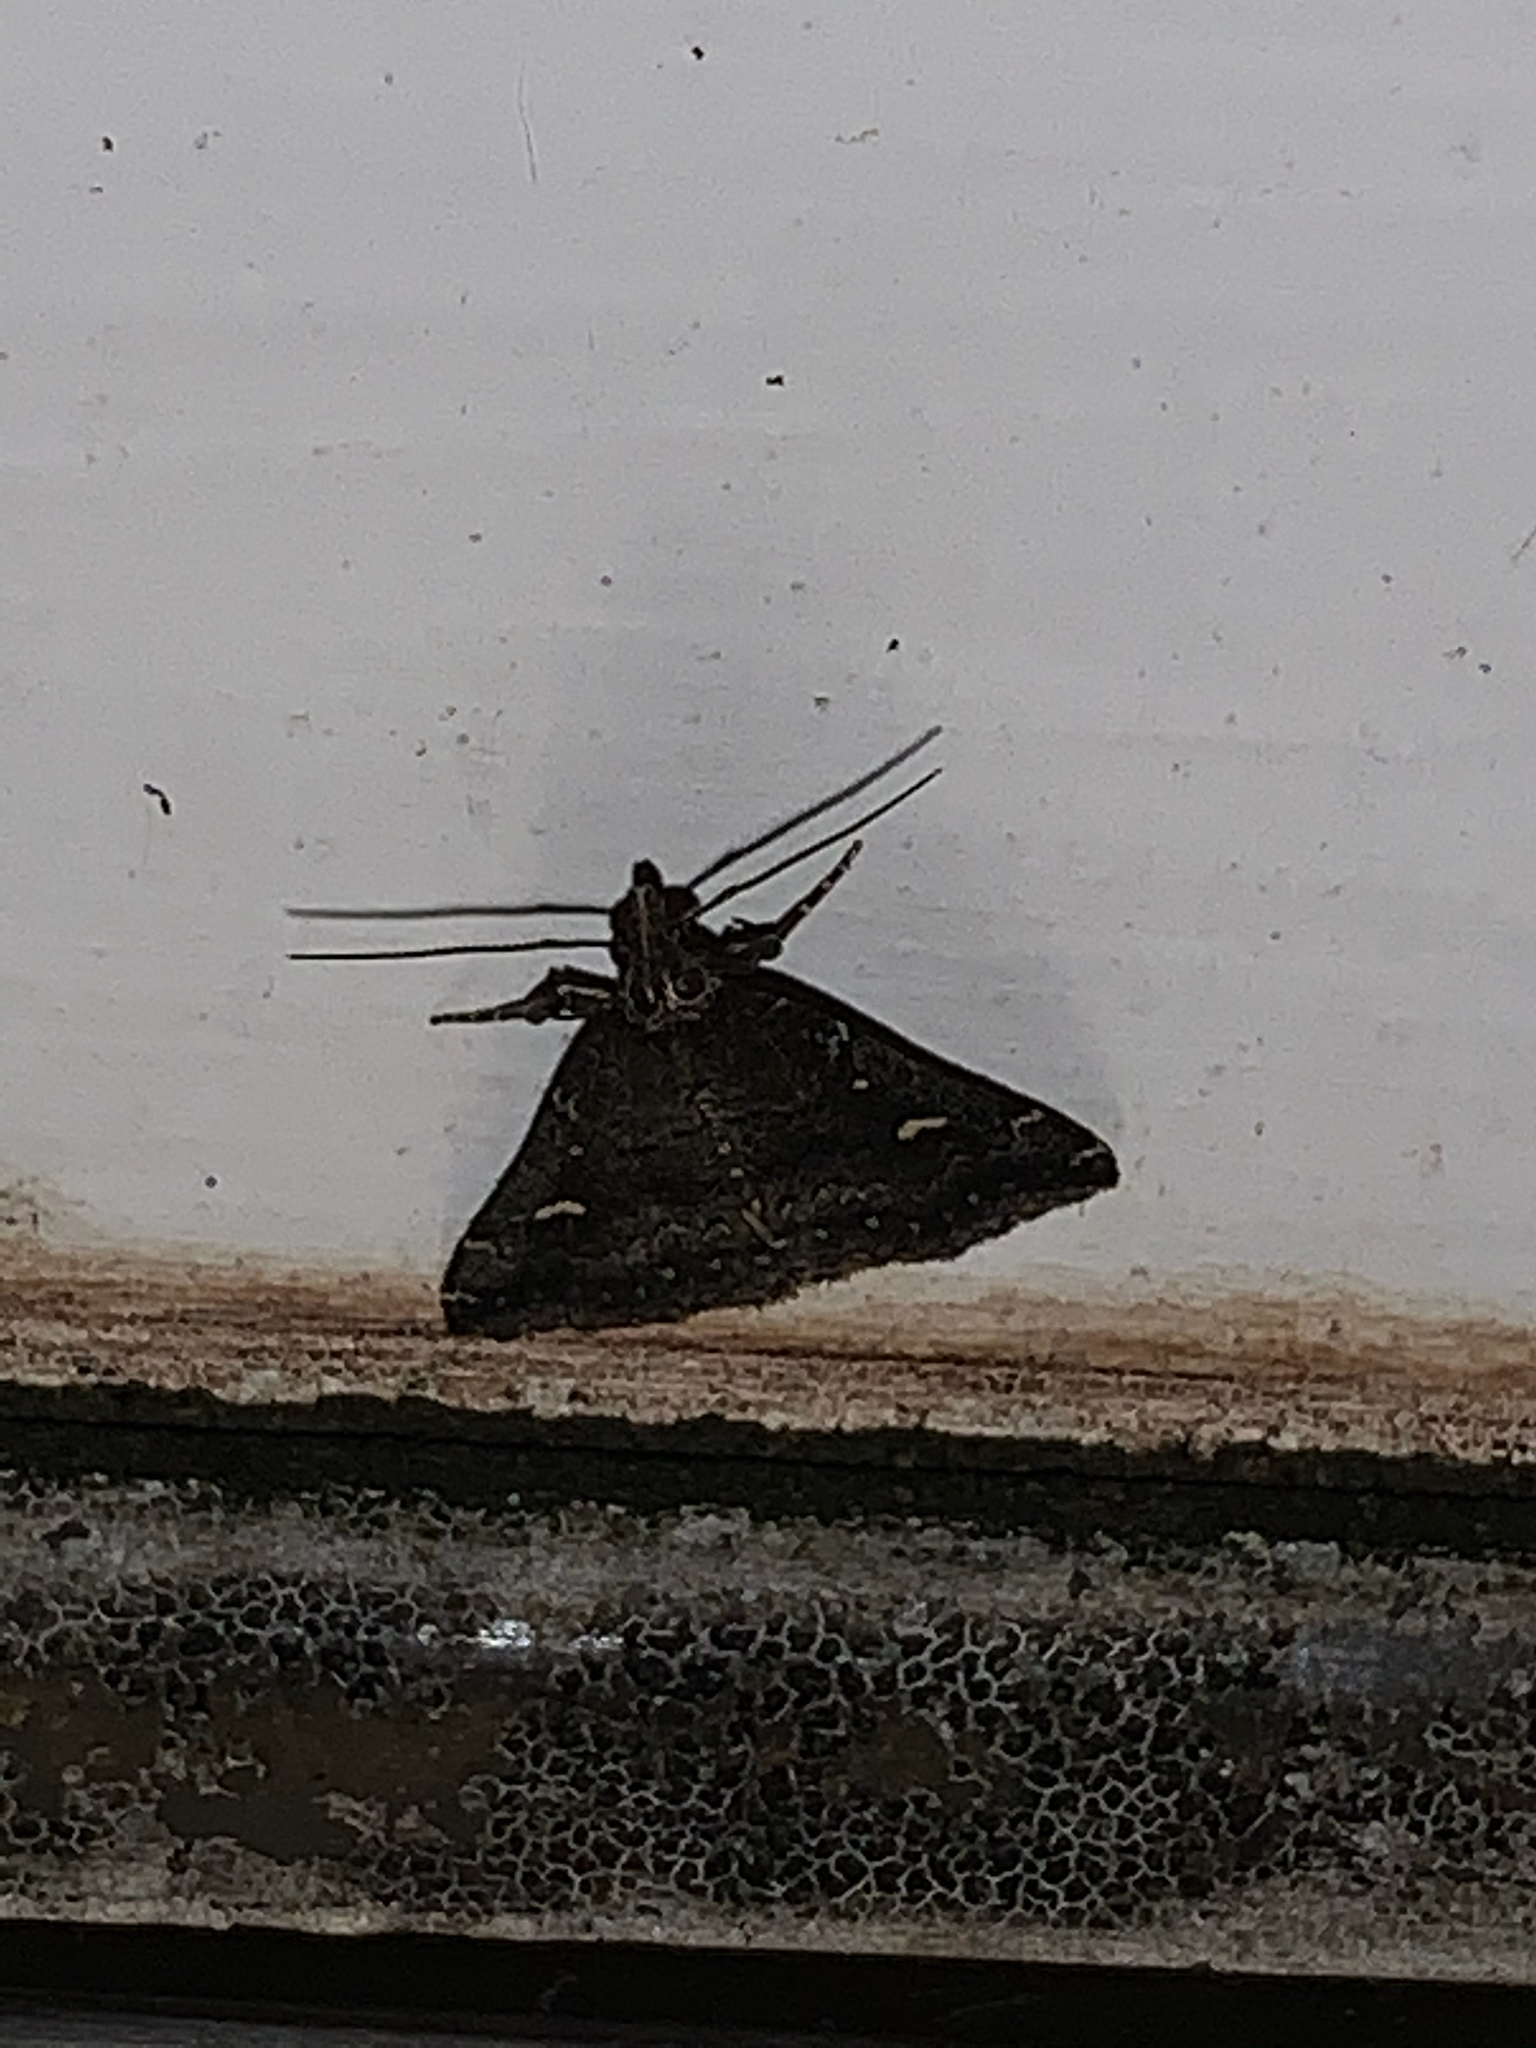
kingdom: Animalia
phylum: Arthropoda
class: Insecta
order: Lepidoptera
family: Erebidae
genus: Tetanolita
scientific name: Tetanolita mynesalis
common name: Smoky tetanolita moth
